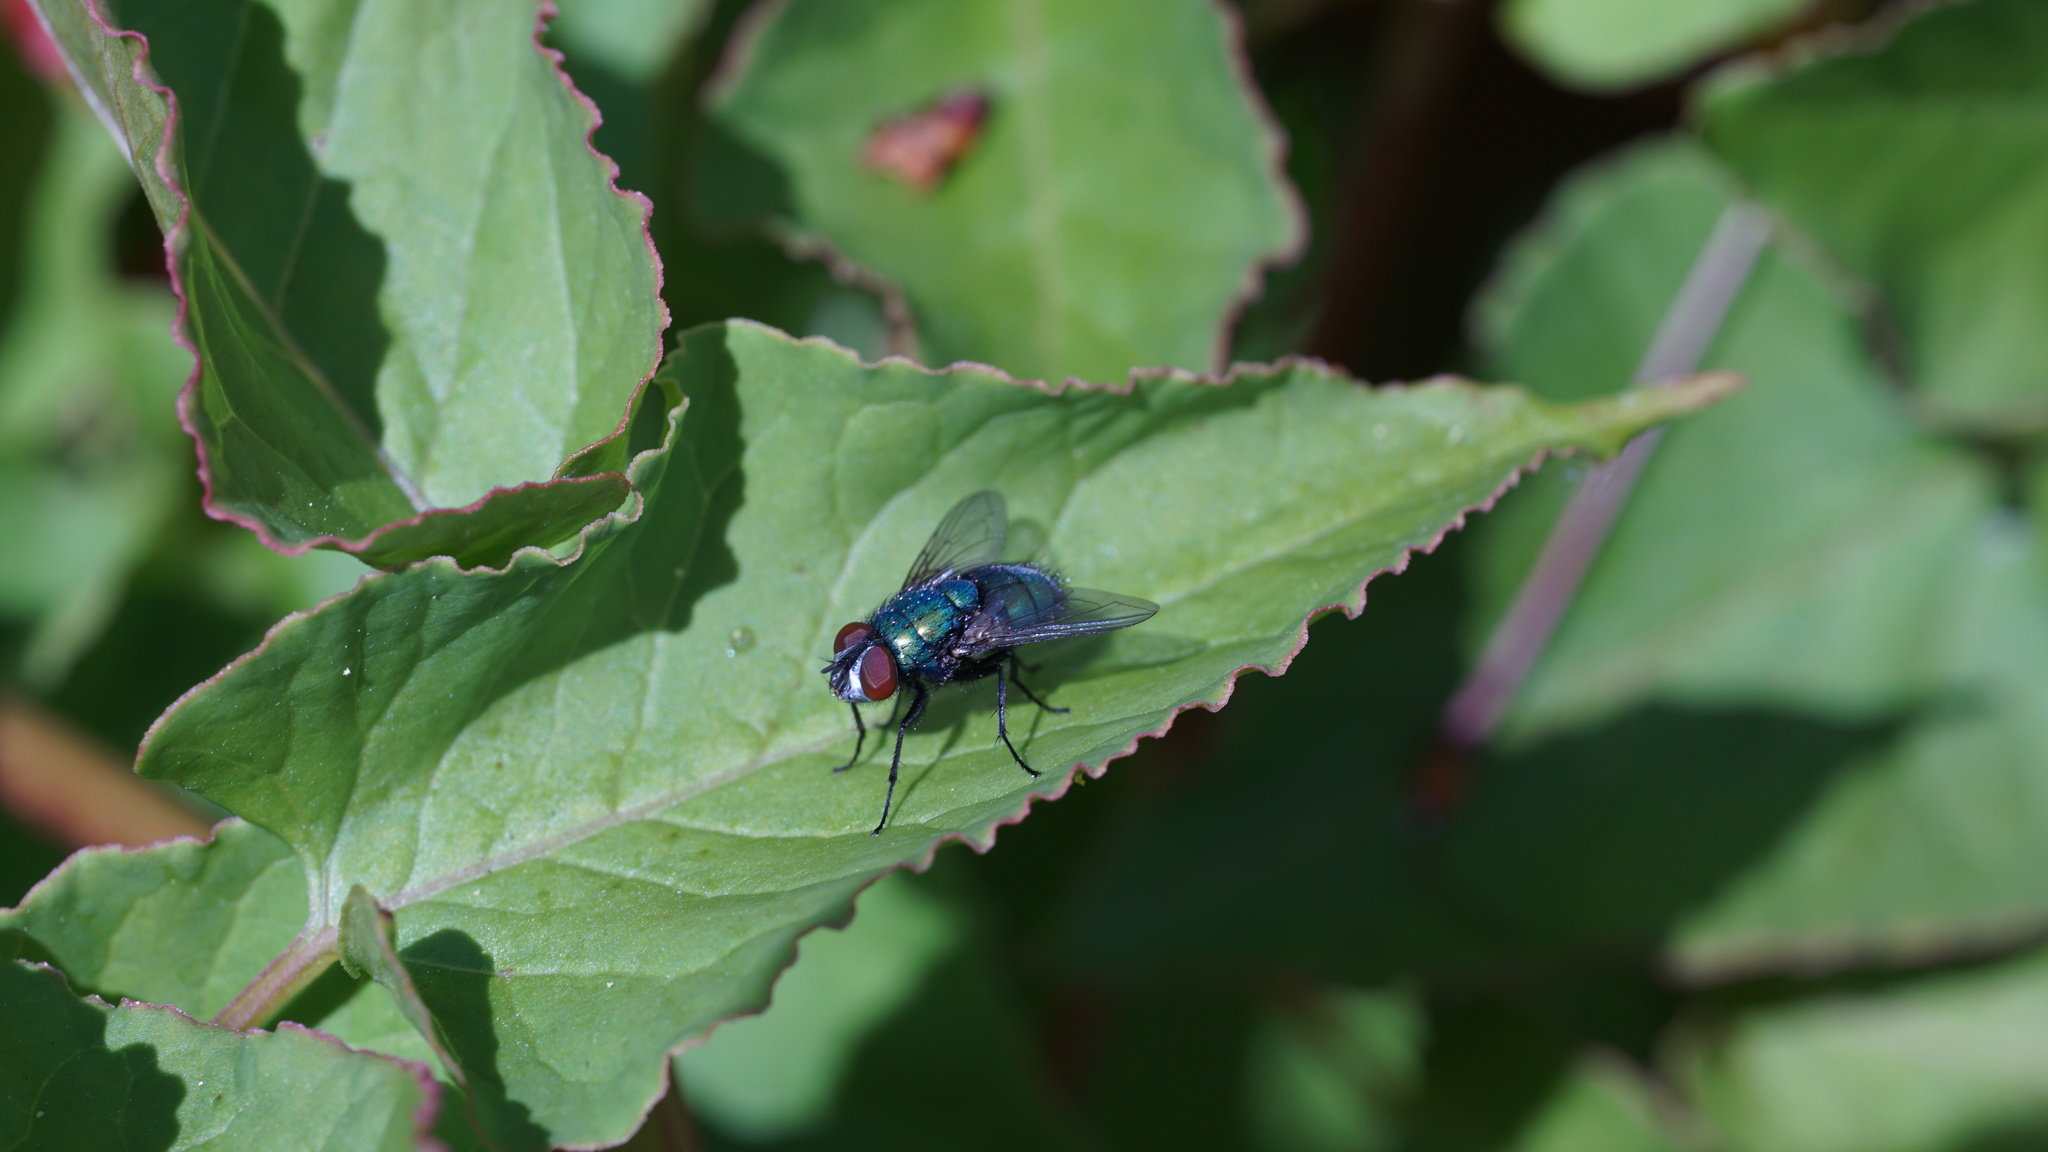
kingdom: Animalia
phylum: Arthropoda
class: Insecta
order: Diptera
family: Calliphoridae
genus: Lucilia
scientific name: Lucilia sericata
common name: Blow fly
